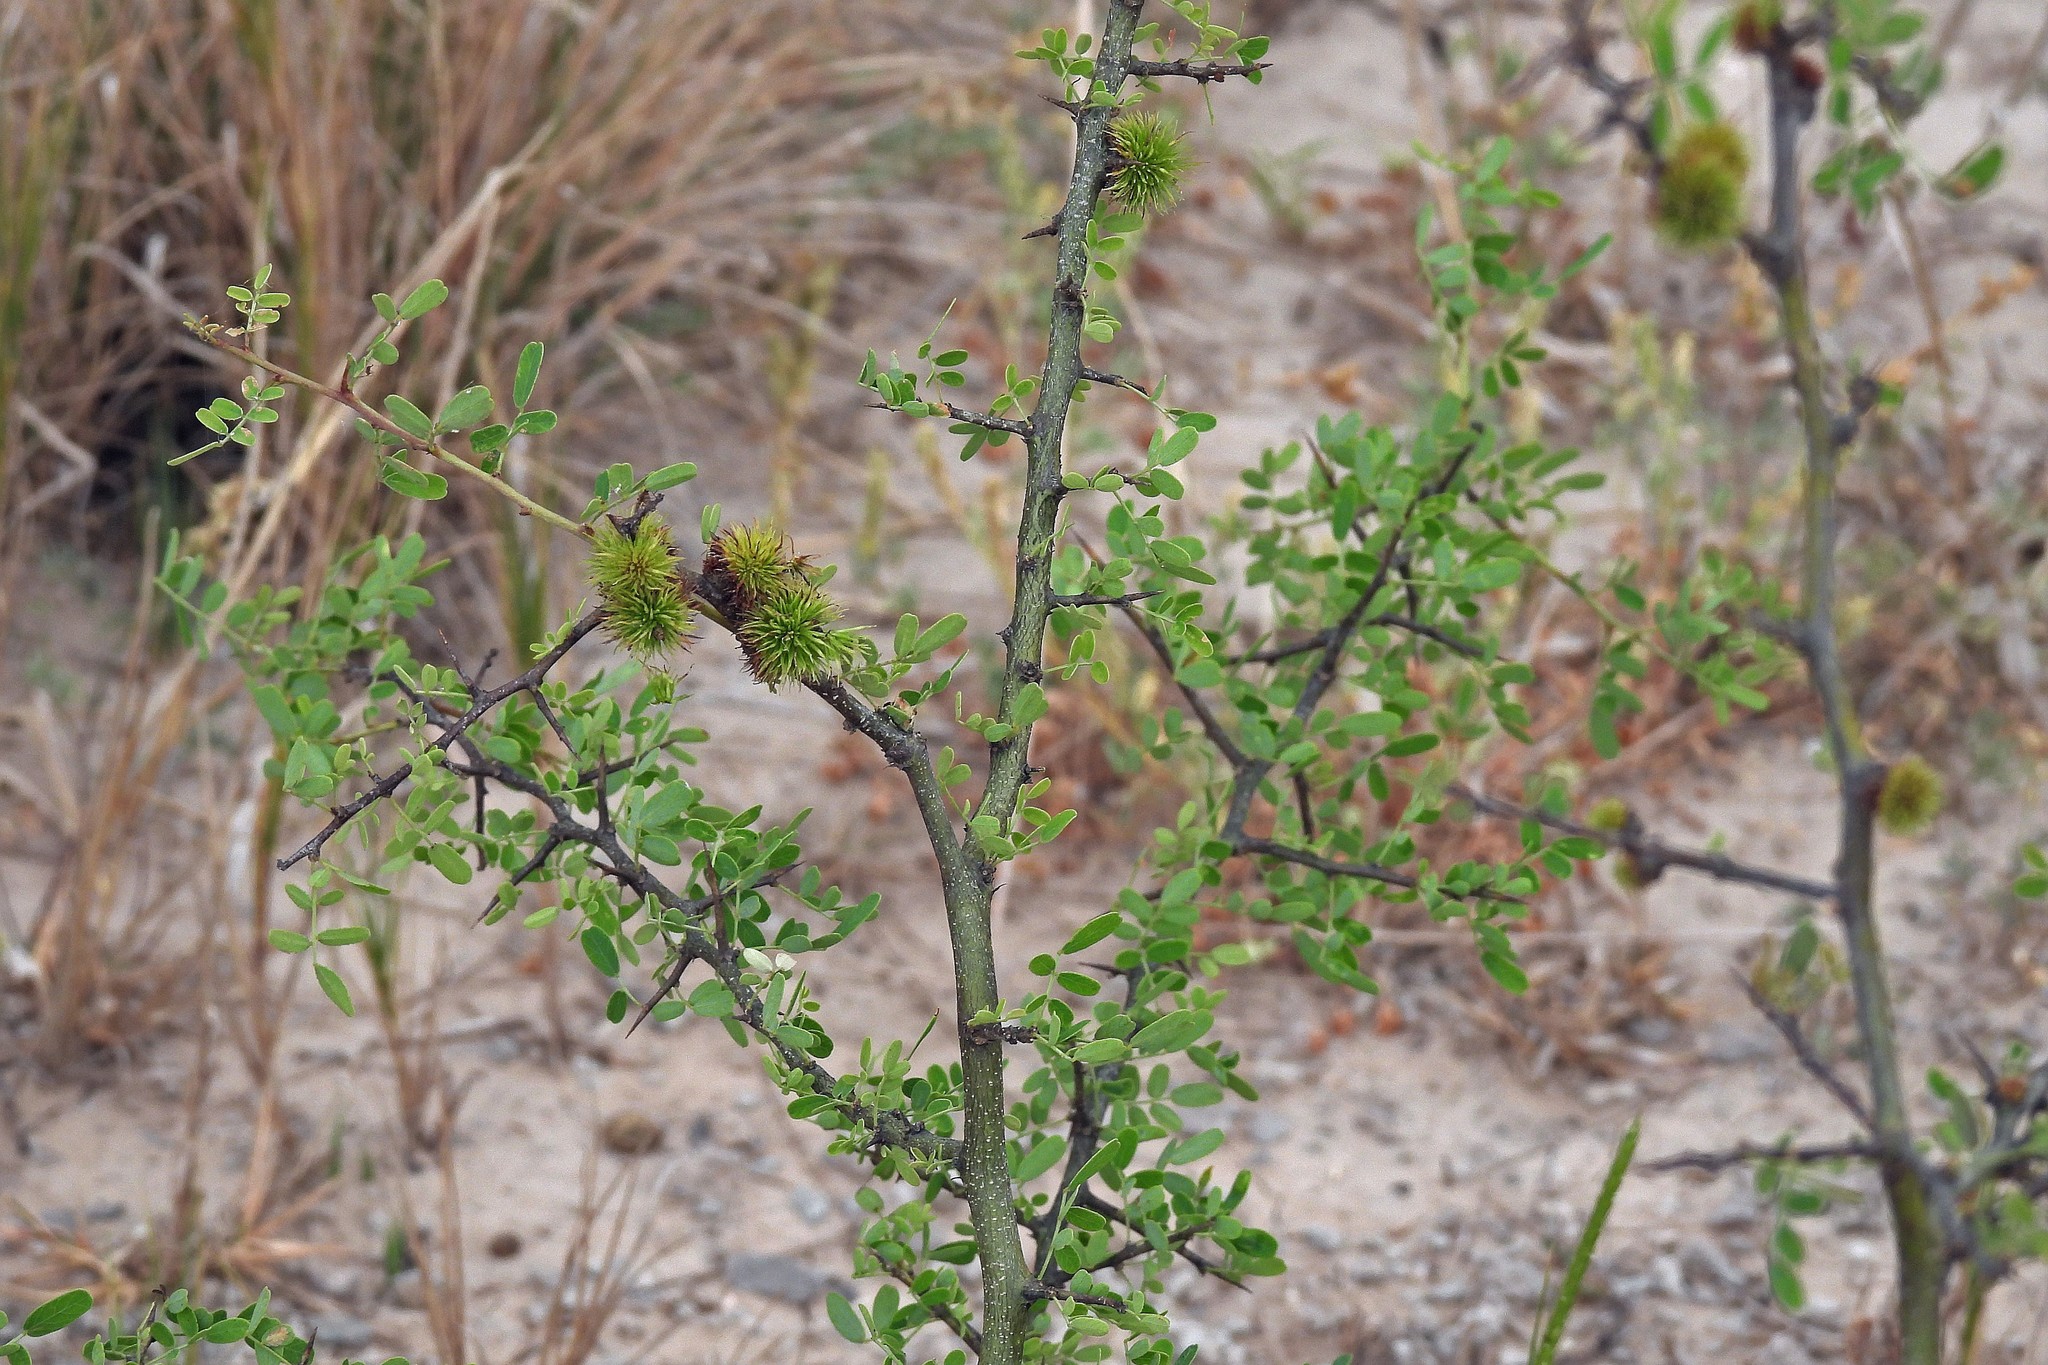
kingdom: Plantae
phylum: Tracheophyta
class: Magnoliopsida
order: Fabales
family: Fabaceae
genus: Geoffroea
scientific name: Geoffroea decorticans
